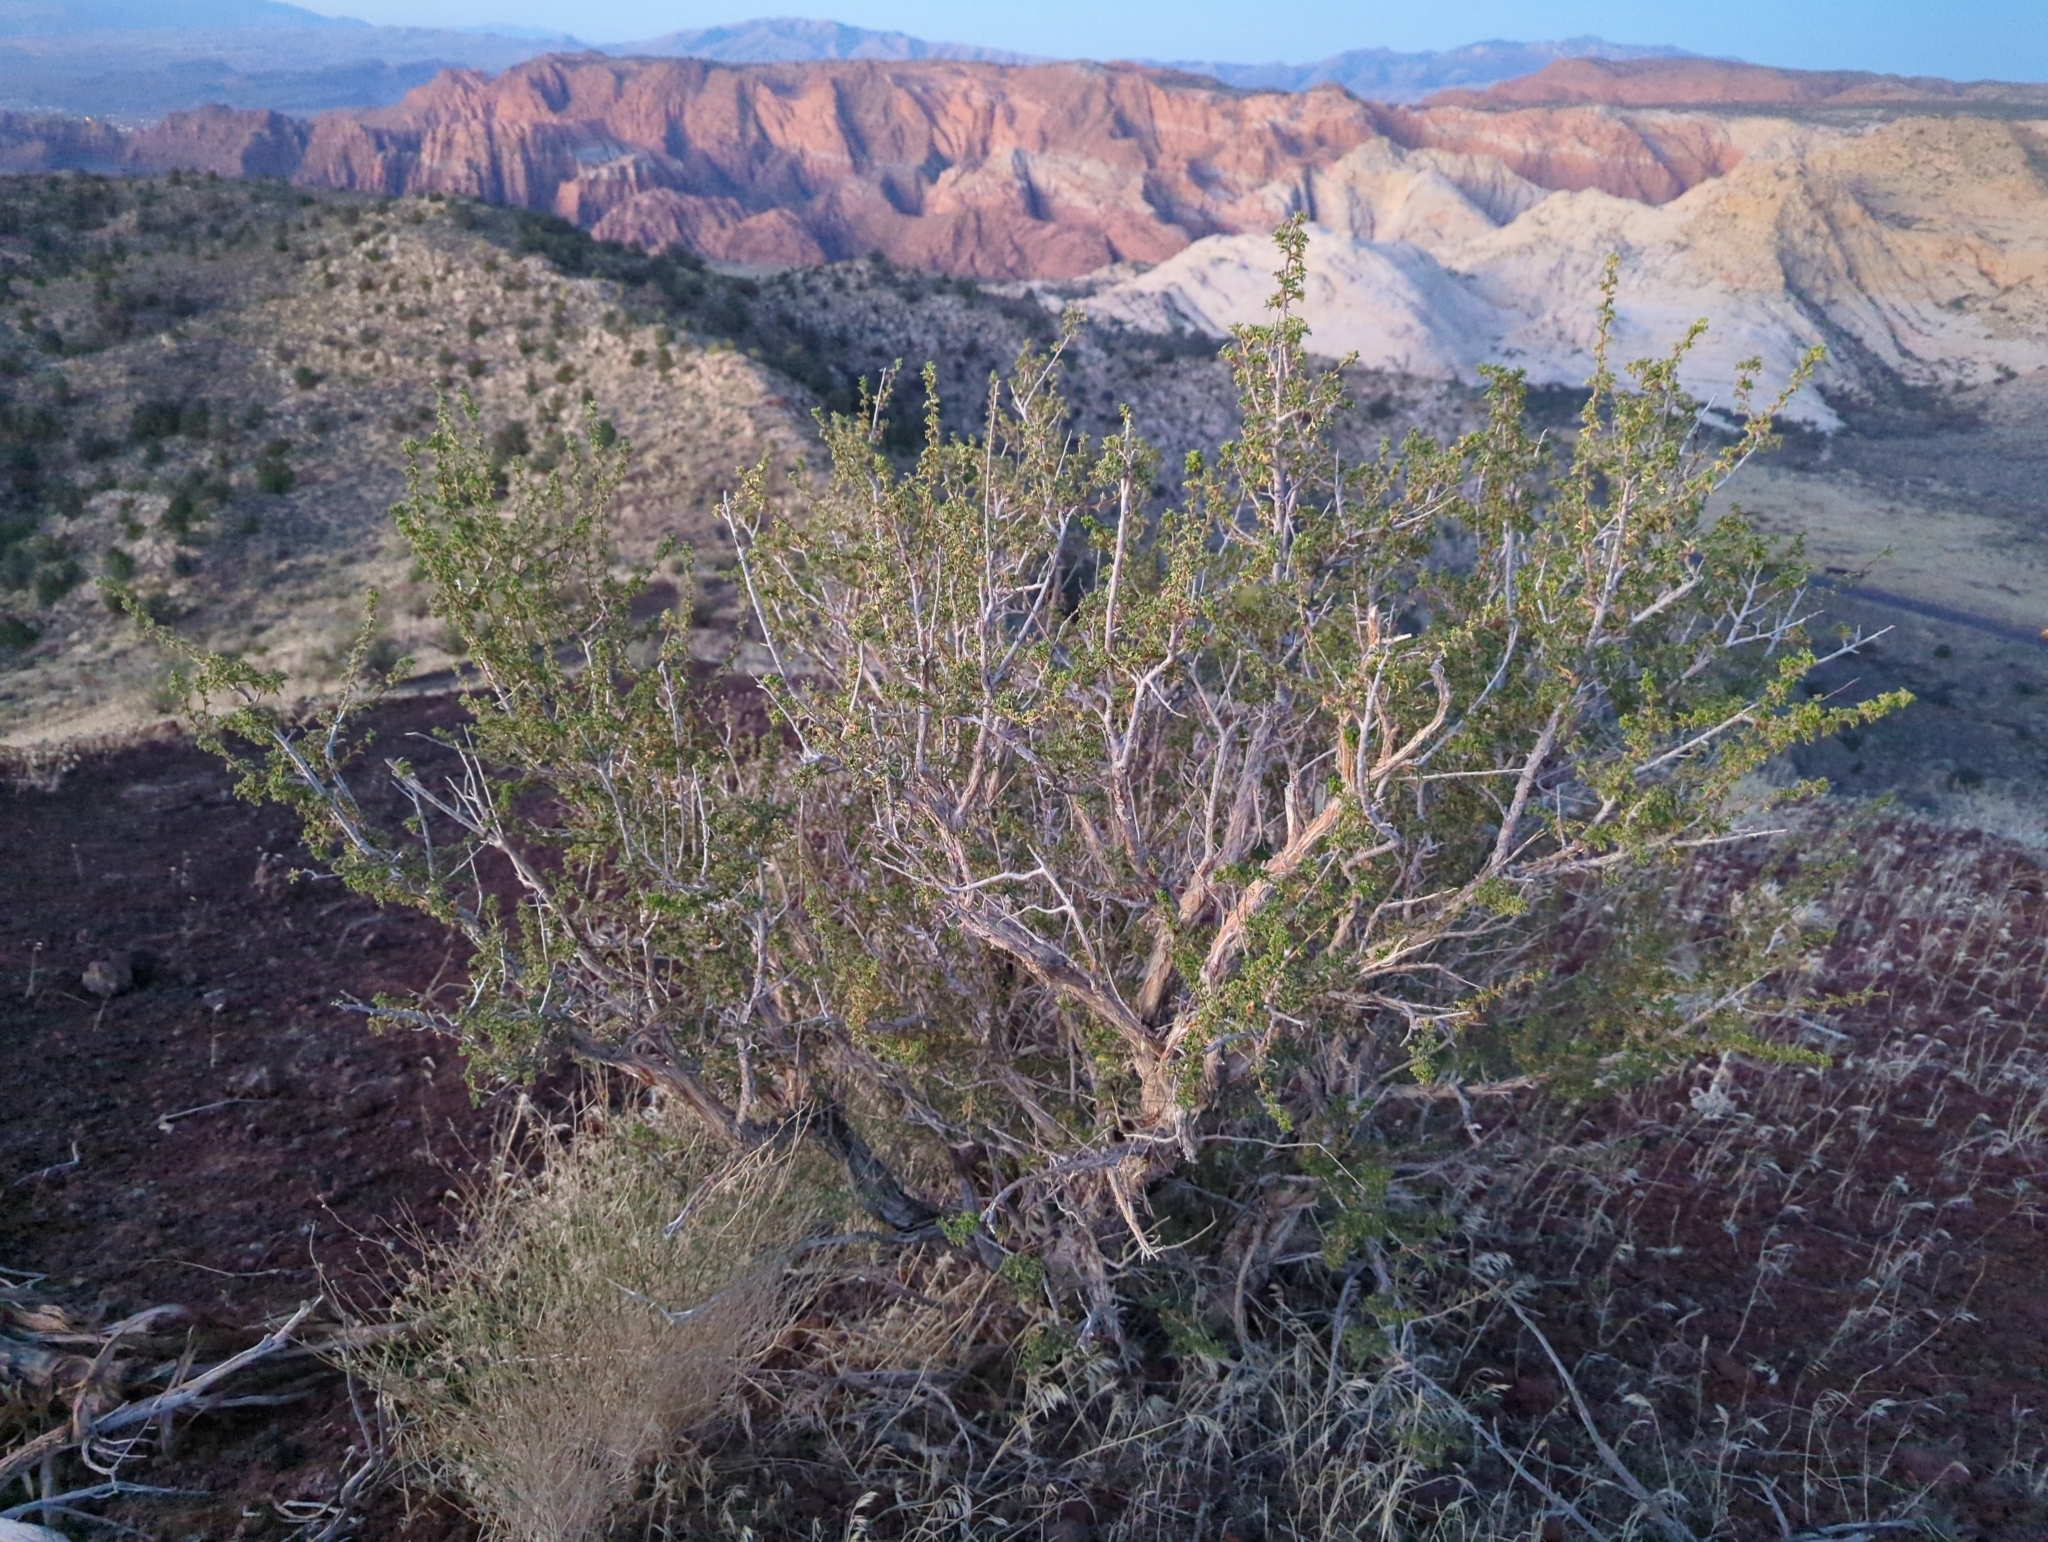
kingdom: Plantae
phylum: Tracheophyta
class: Magnoliopsida
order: Rosales
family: Rosaceae
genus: Purshia
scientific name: Purshia stansburiana
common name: Stansbury's cliffrose
